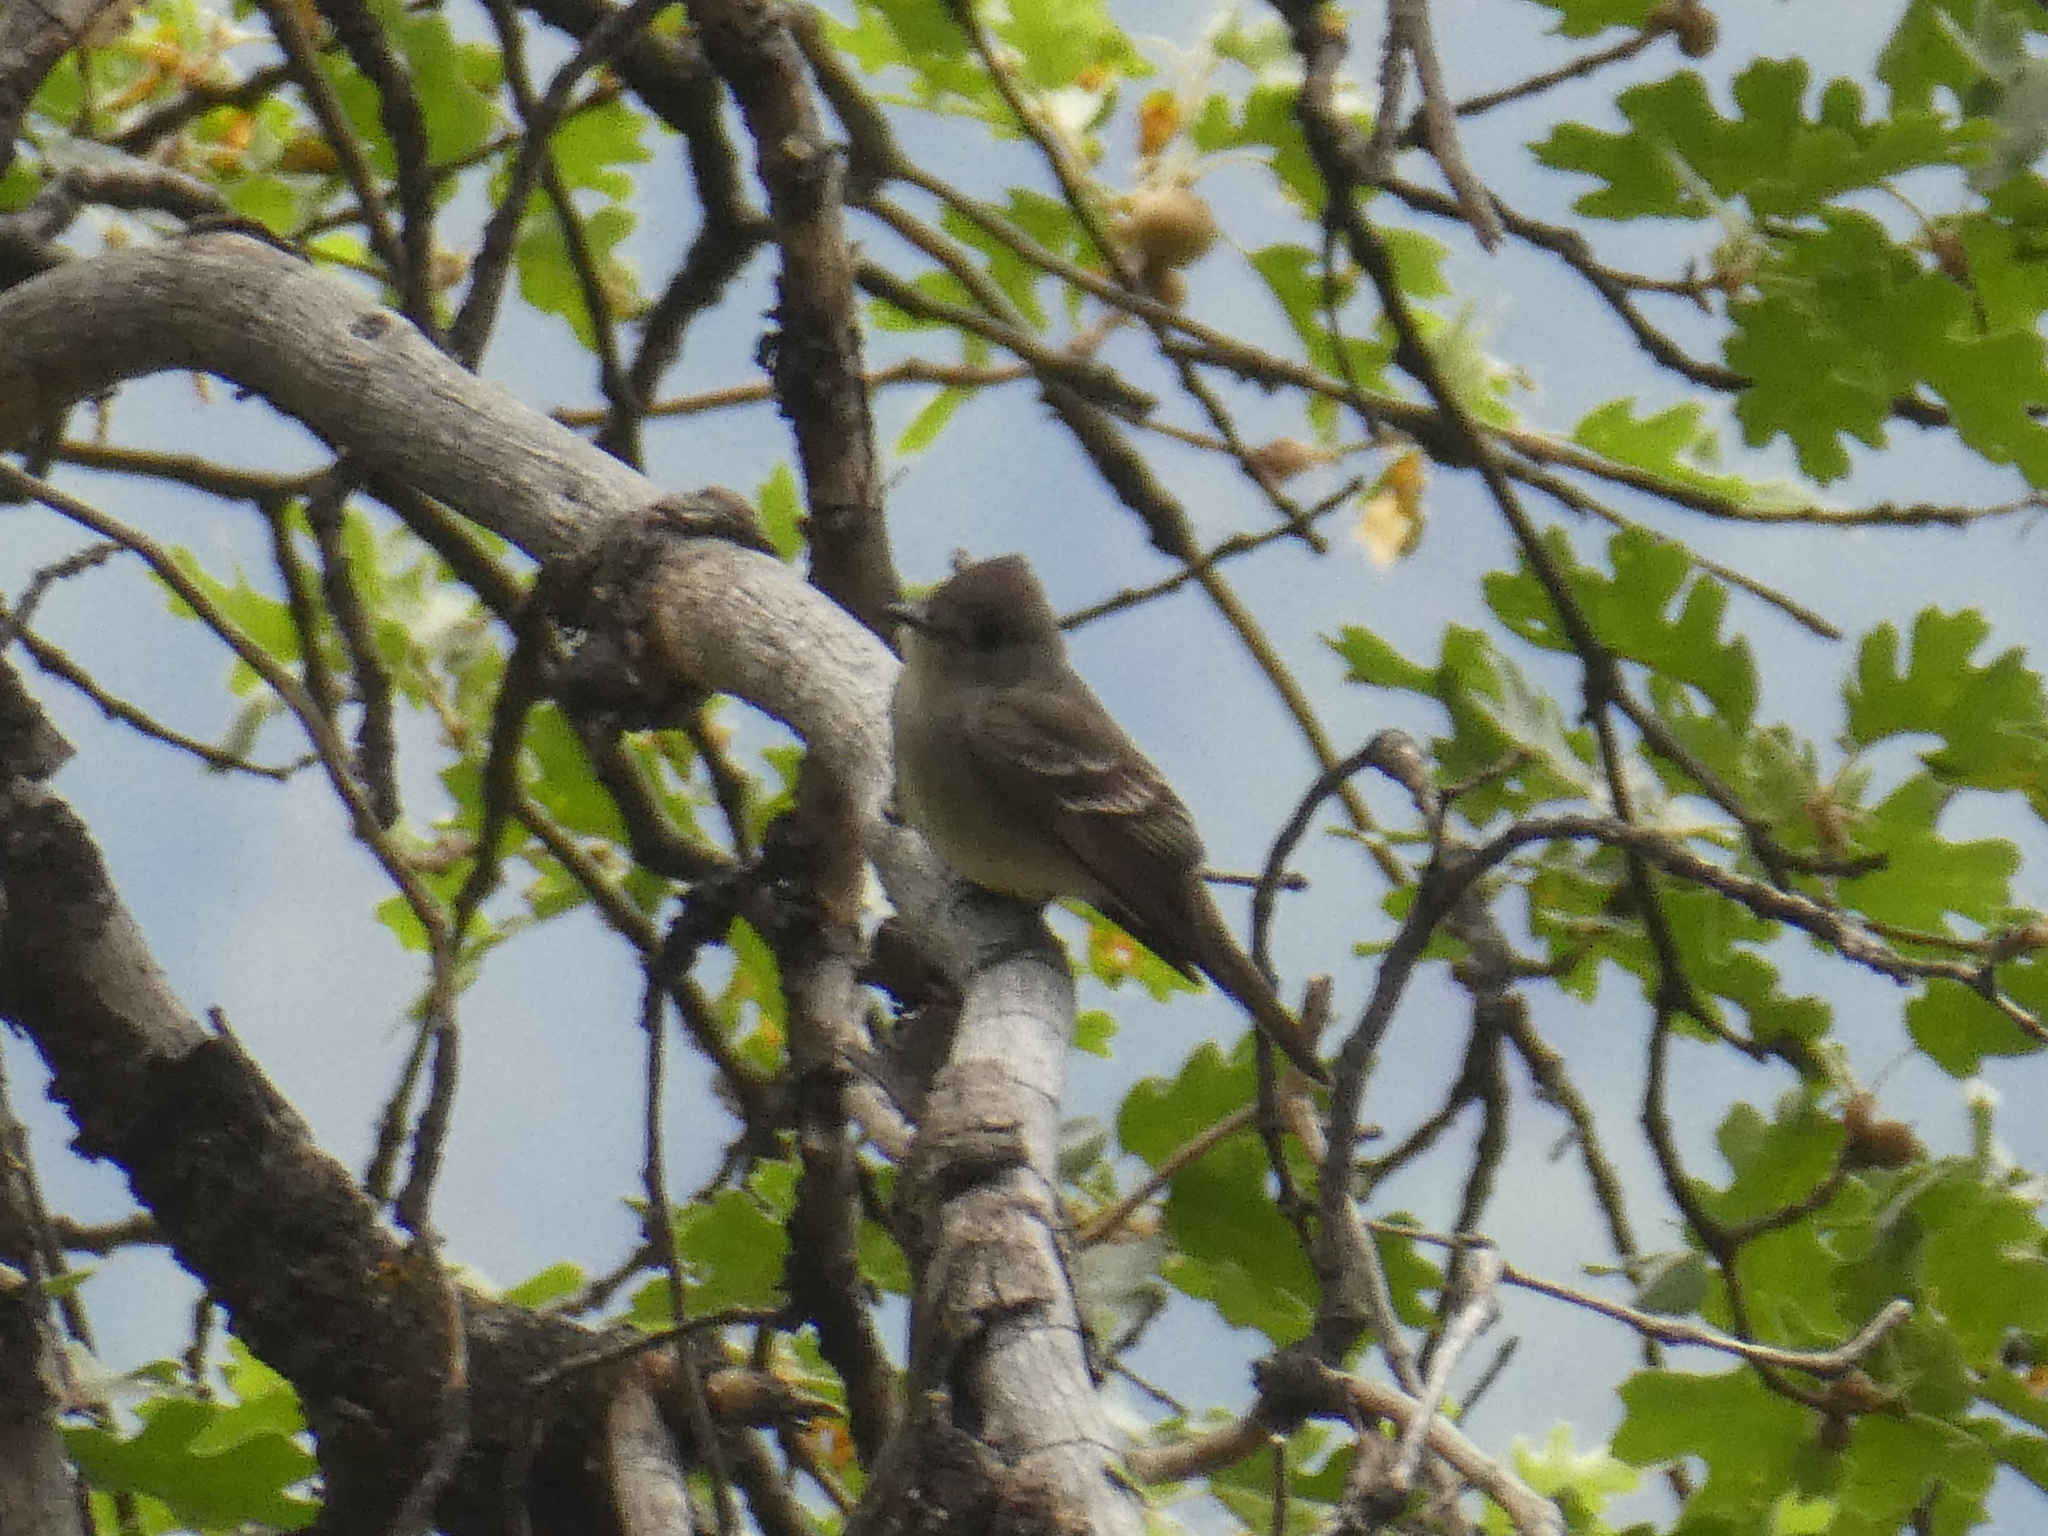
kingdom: Animalia
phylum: Chordata
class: Aves
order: Passeriformes
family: Tyrannidae
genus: Contopus
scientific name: Contopus sordidulus
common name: Western wood-pewee
